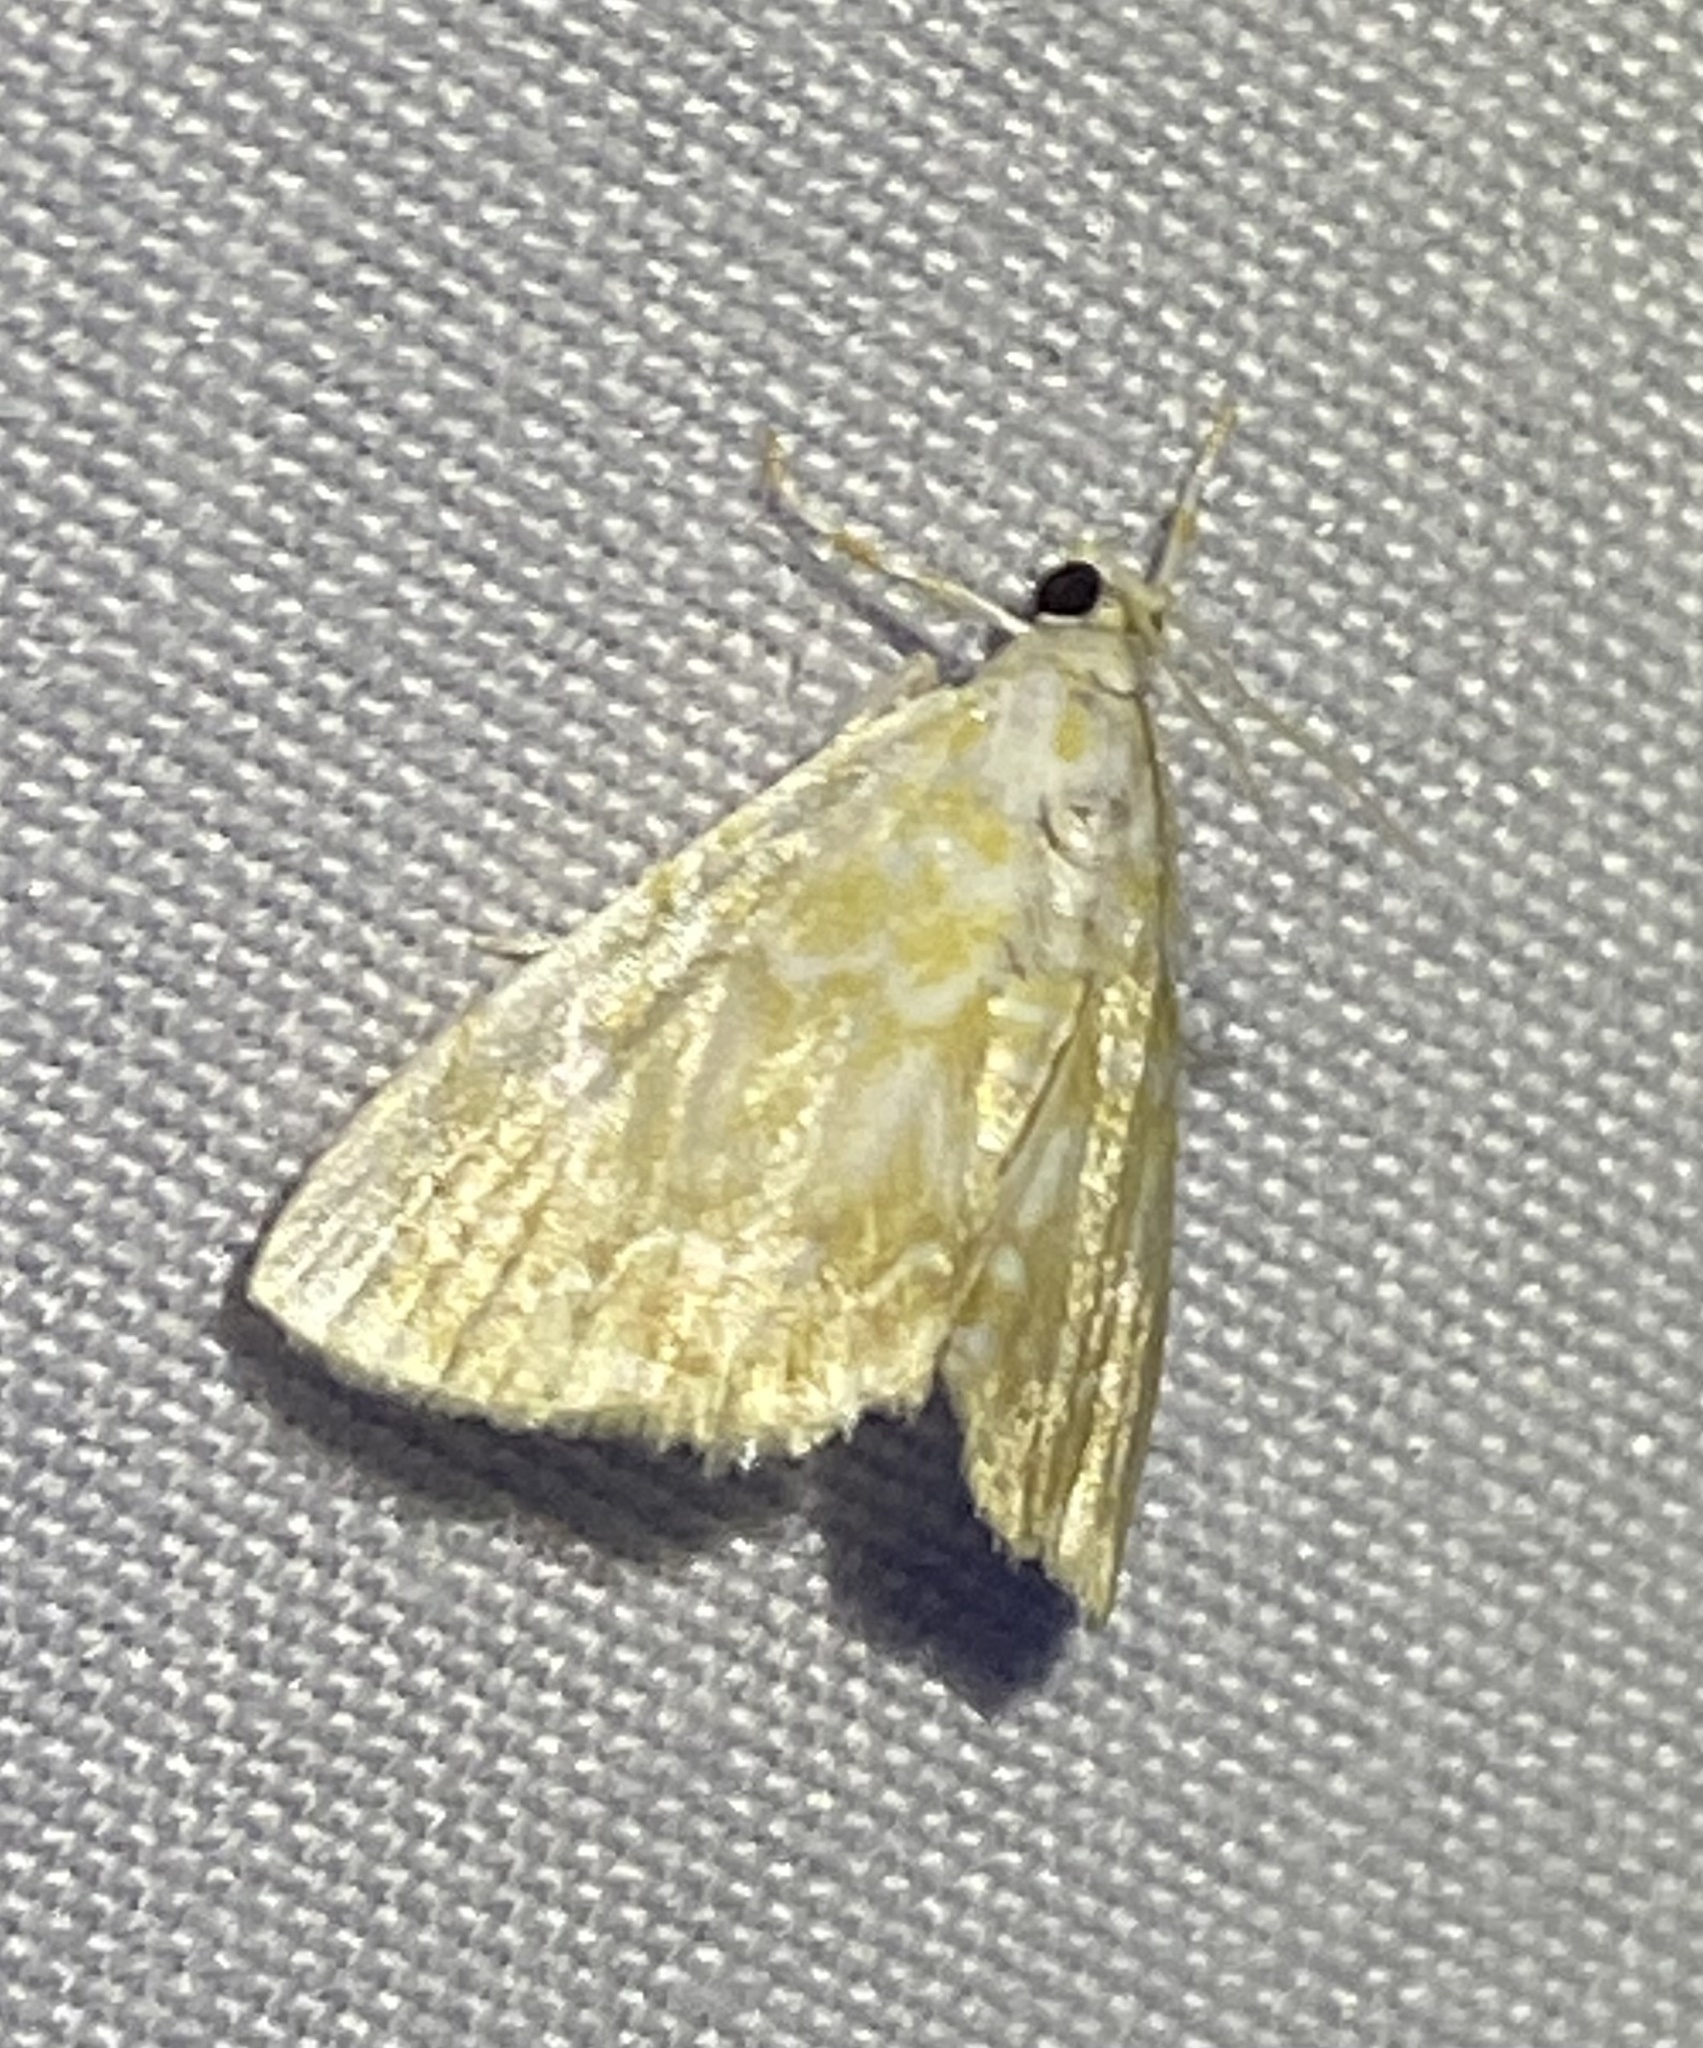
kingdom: Animalia
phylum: Arthropoda
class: Insecta
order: Lepidoptera
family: Crambidae
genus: Glaphyria
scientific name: Glaphyria glaphyralis
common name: Common glaphyria moth
